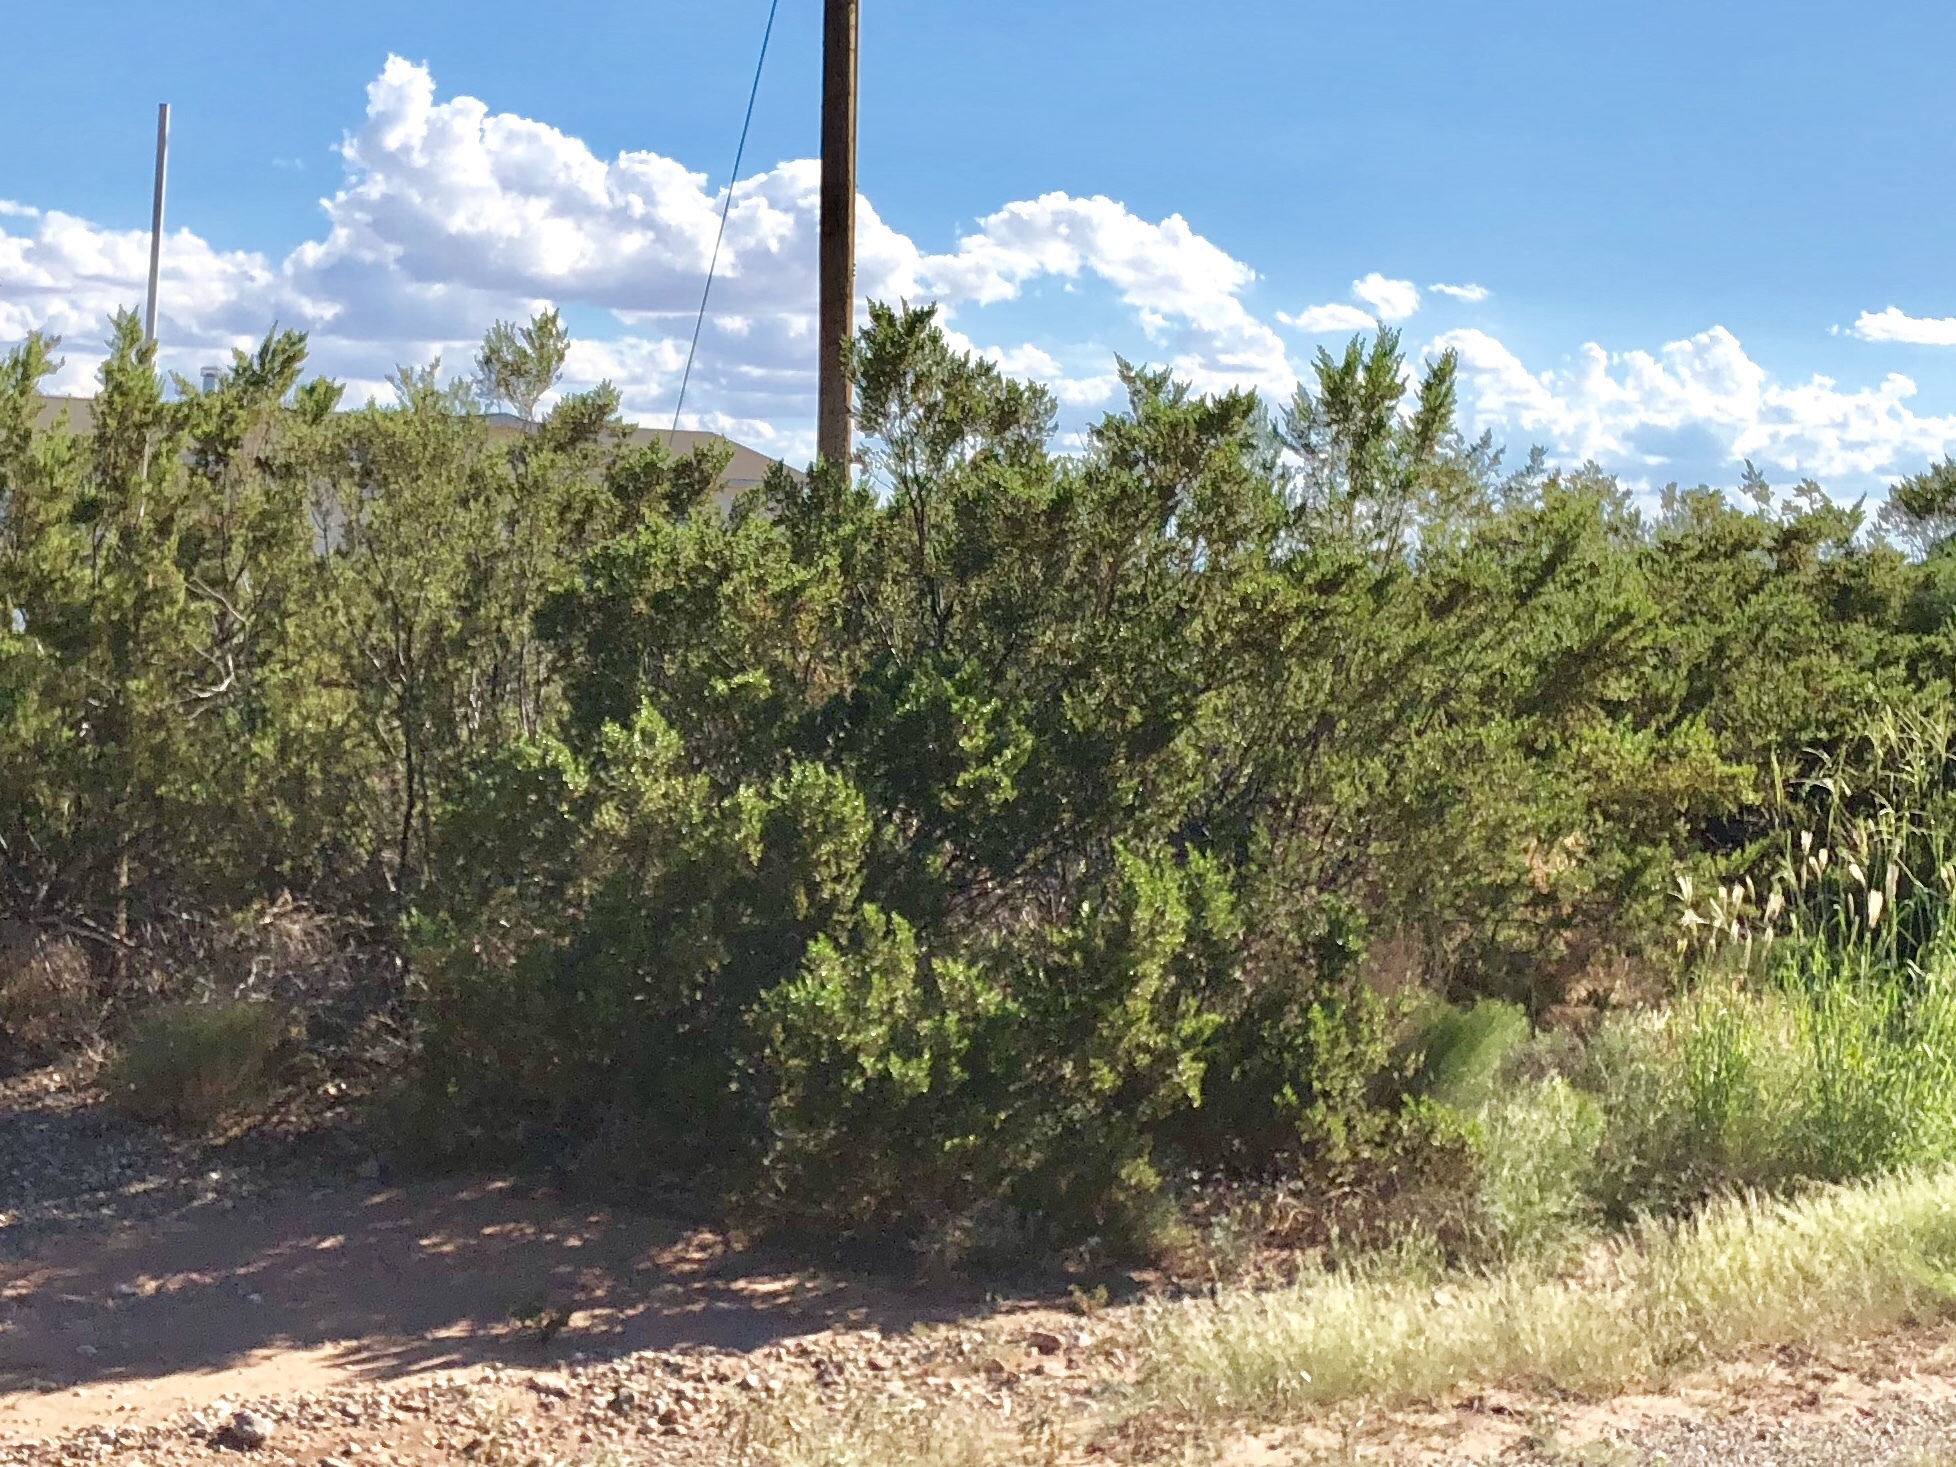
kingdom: Plantae
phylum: Tracheophyta
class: Magnoliopsida
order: Zygophyllales
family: Zygophyllaceae
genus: Larrea
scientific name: Larrea tridentata
